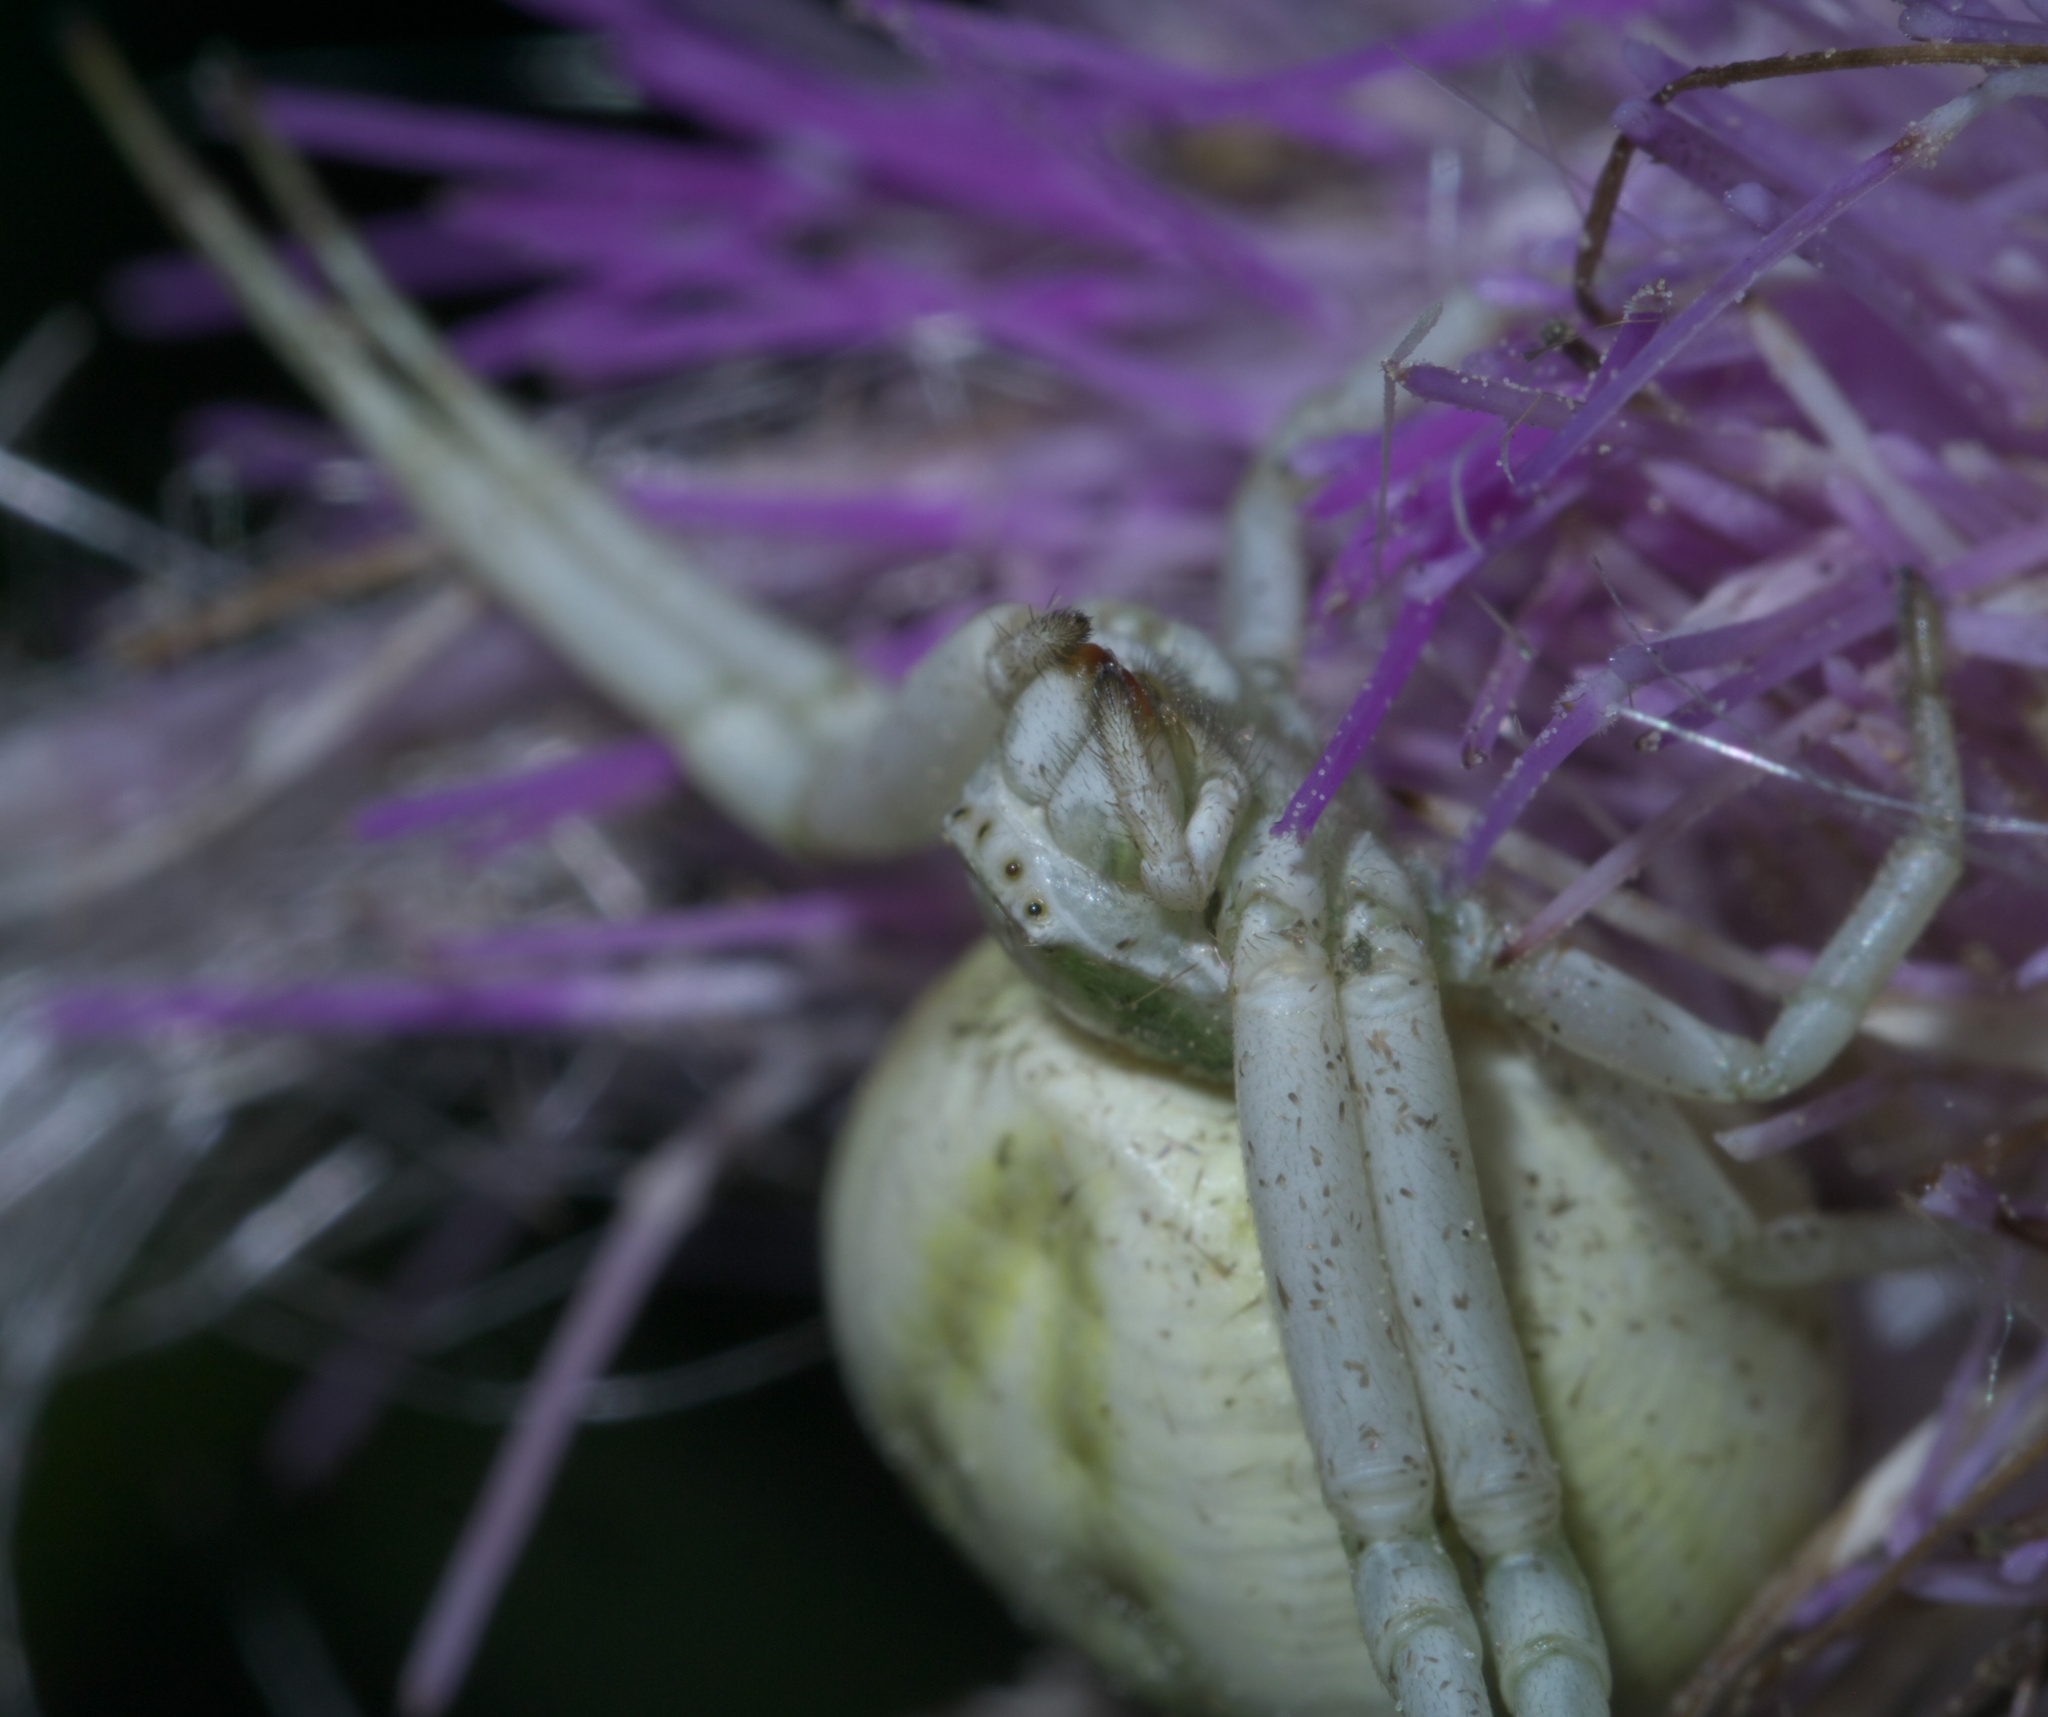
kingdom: Animalia
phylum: Arthropoda
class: Arachnida
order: Araneae
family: Thomisidae
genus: Misumenoides
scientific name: Misumenoides formosipes
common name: White-banded crab spider
